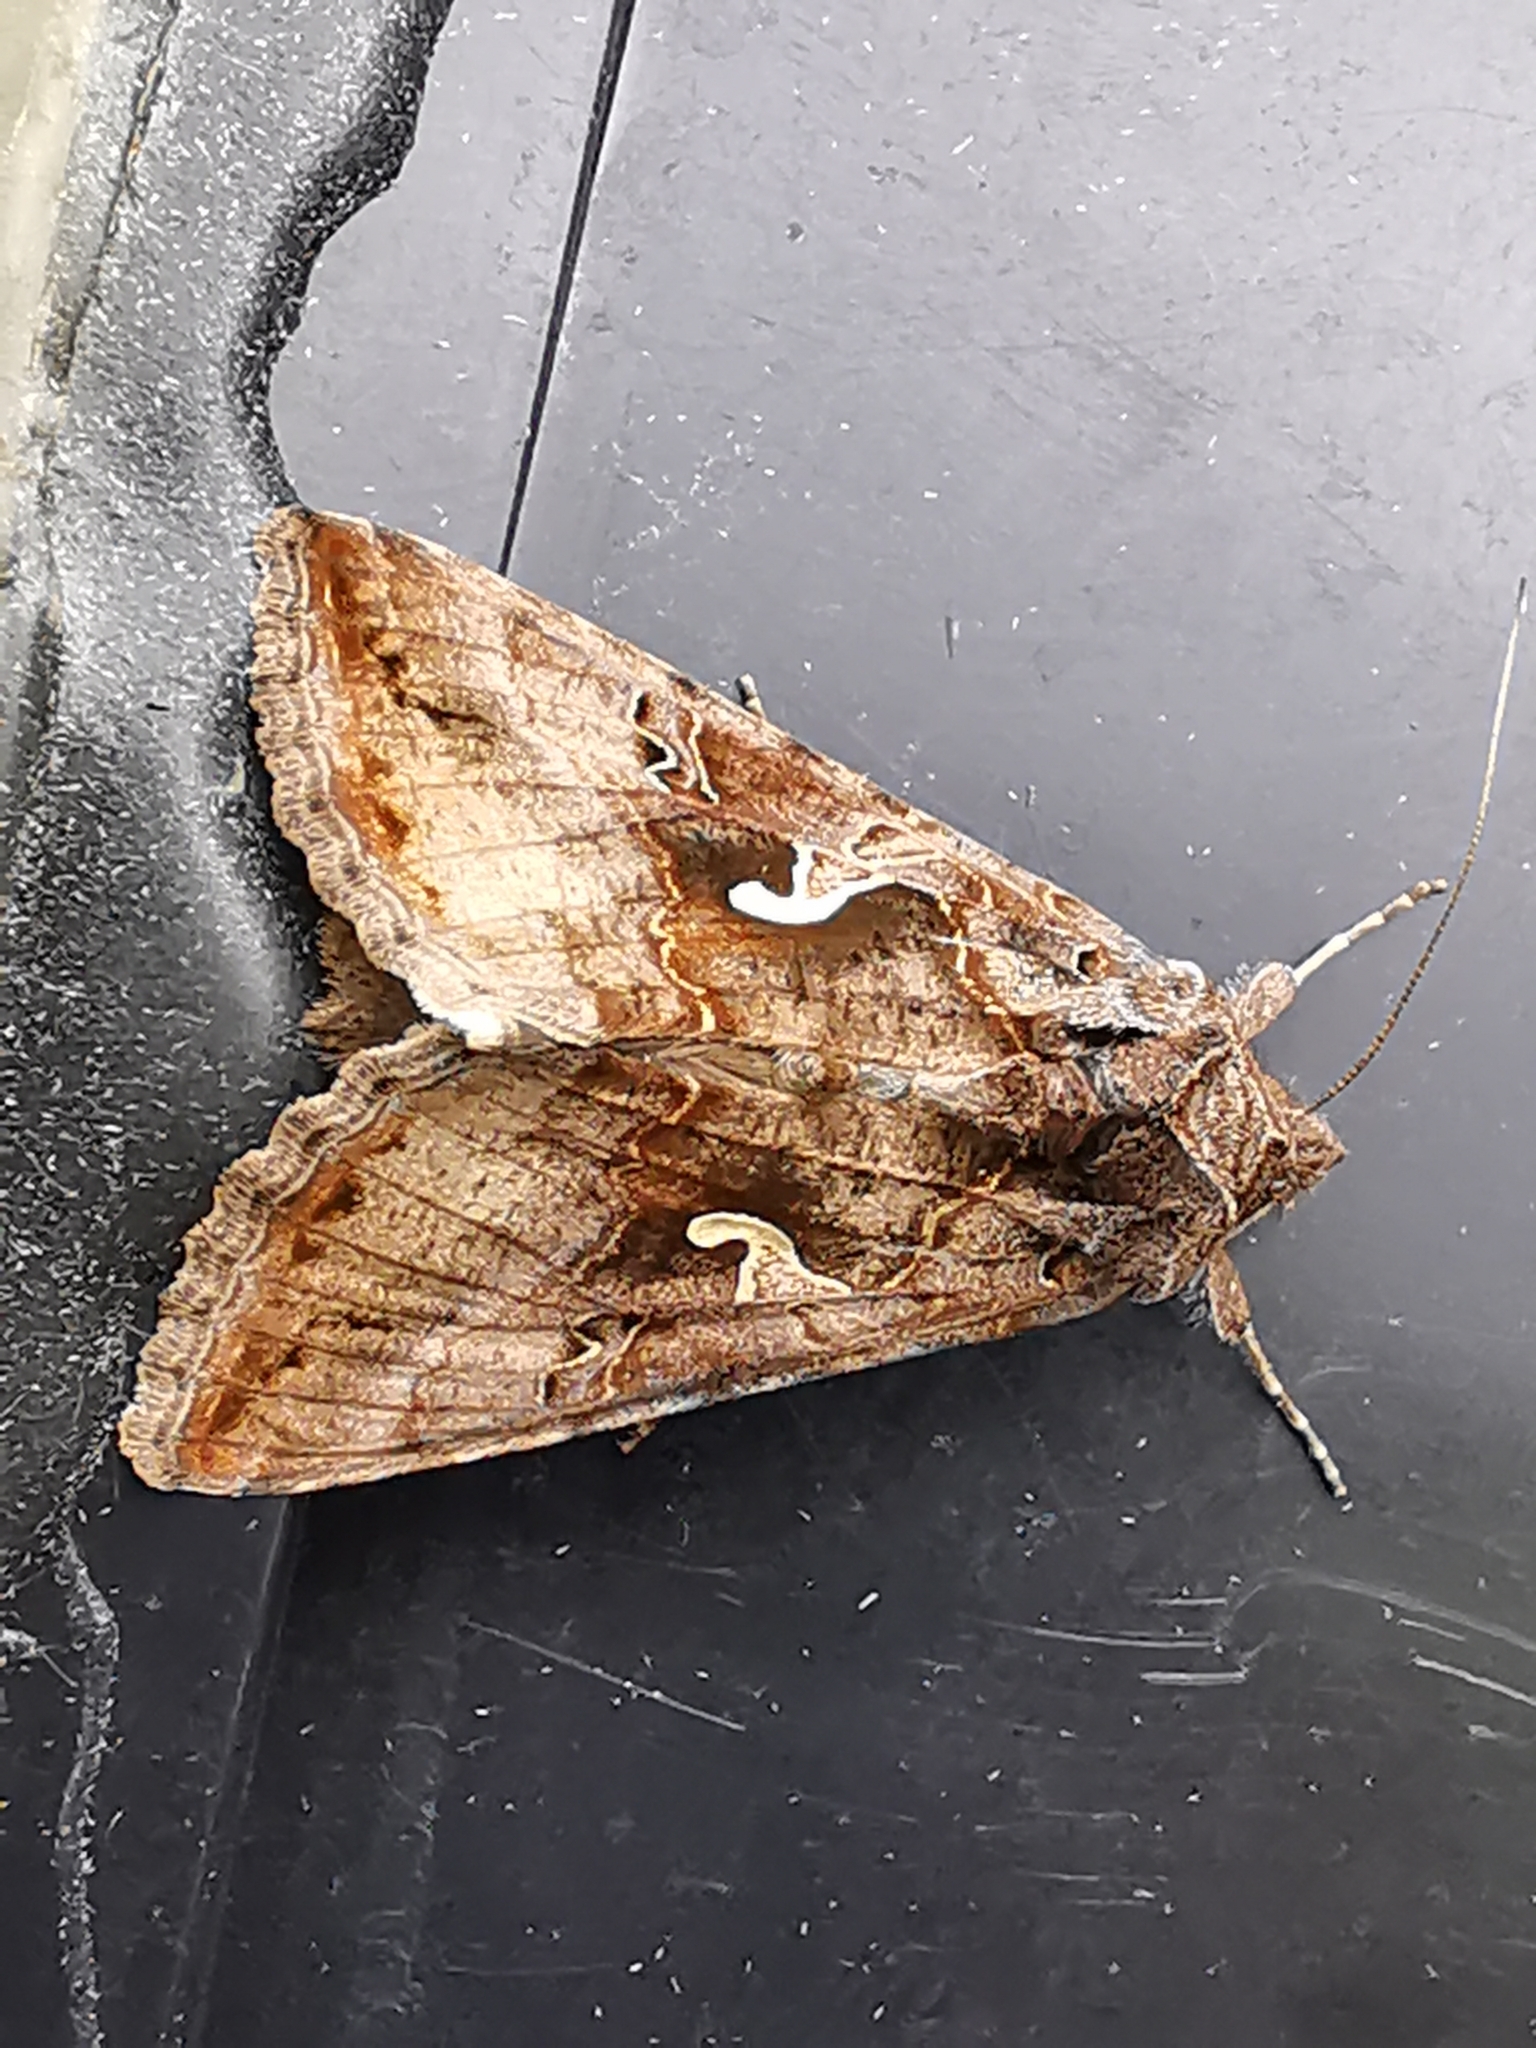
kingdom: Animalia
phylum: Arthropoda
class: Insecta
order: Lepidoptera
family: Noctuidae
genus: Autographa
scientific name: Autographa gamma
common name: Silver y
